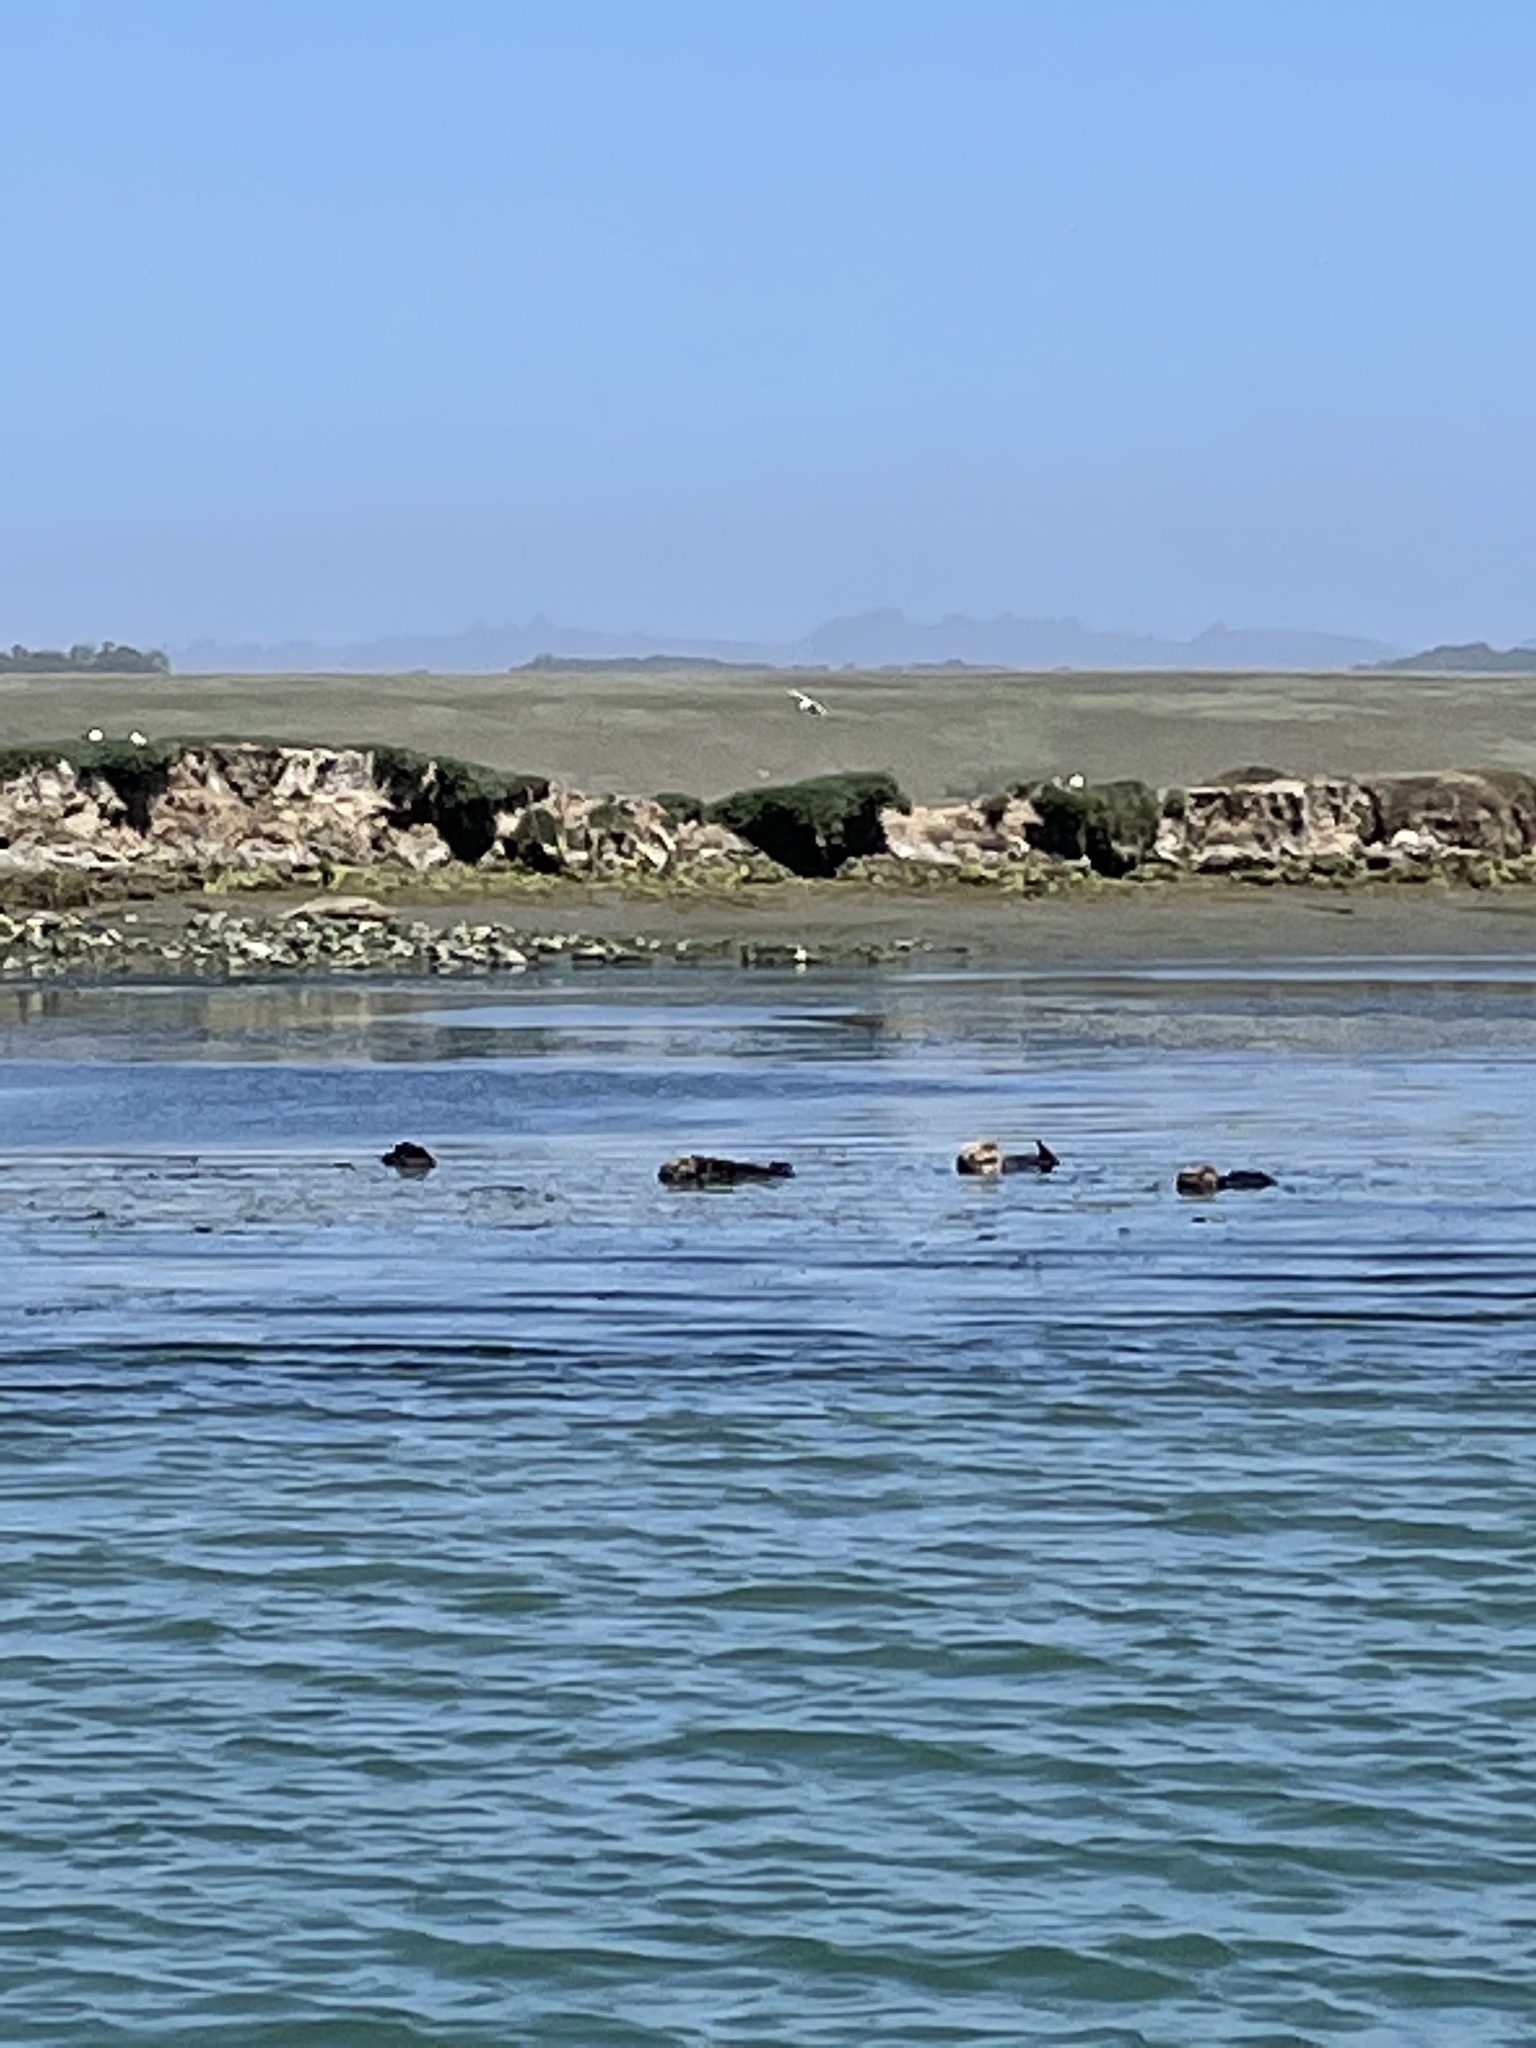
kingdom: Animalia
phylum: Chordata
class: Mammalia
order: Carnivora
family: Mustelidae
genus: Enhydra
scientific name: Enhydra lutris
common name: Sea otter
